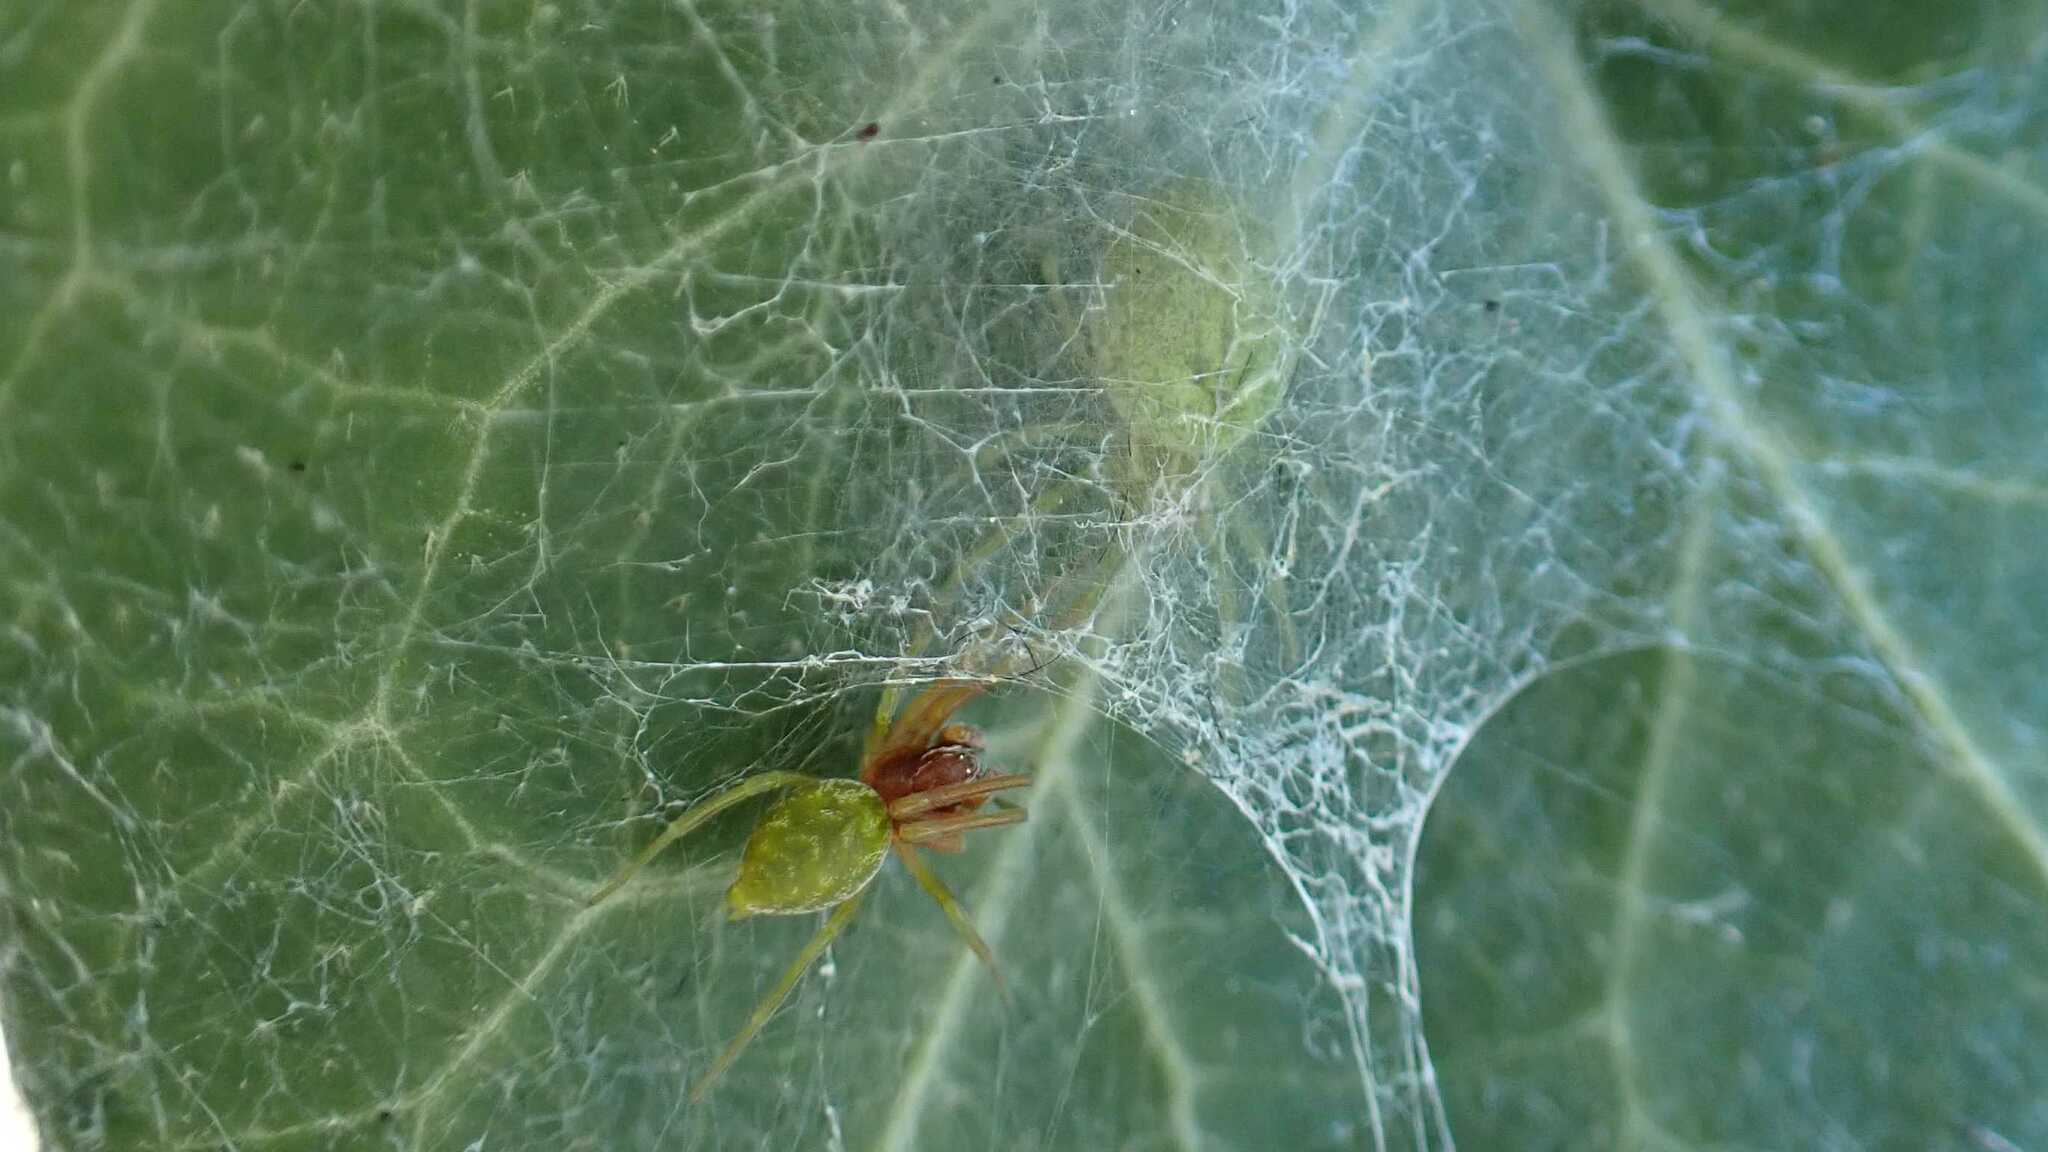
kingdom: Animalia
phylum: Arthropoda
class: Arachnida
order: Araneae
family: Dictynidae
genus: Nigma
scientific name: Nigma walckenaeri
